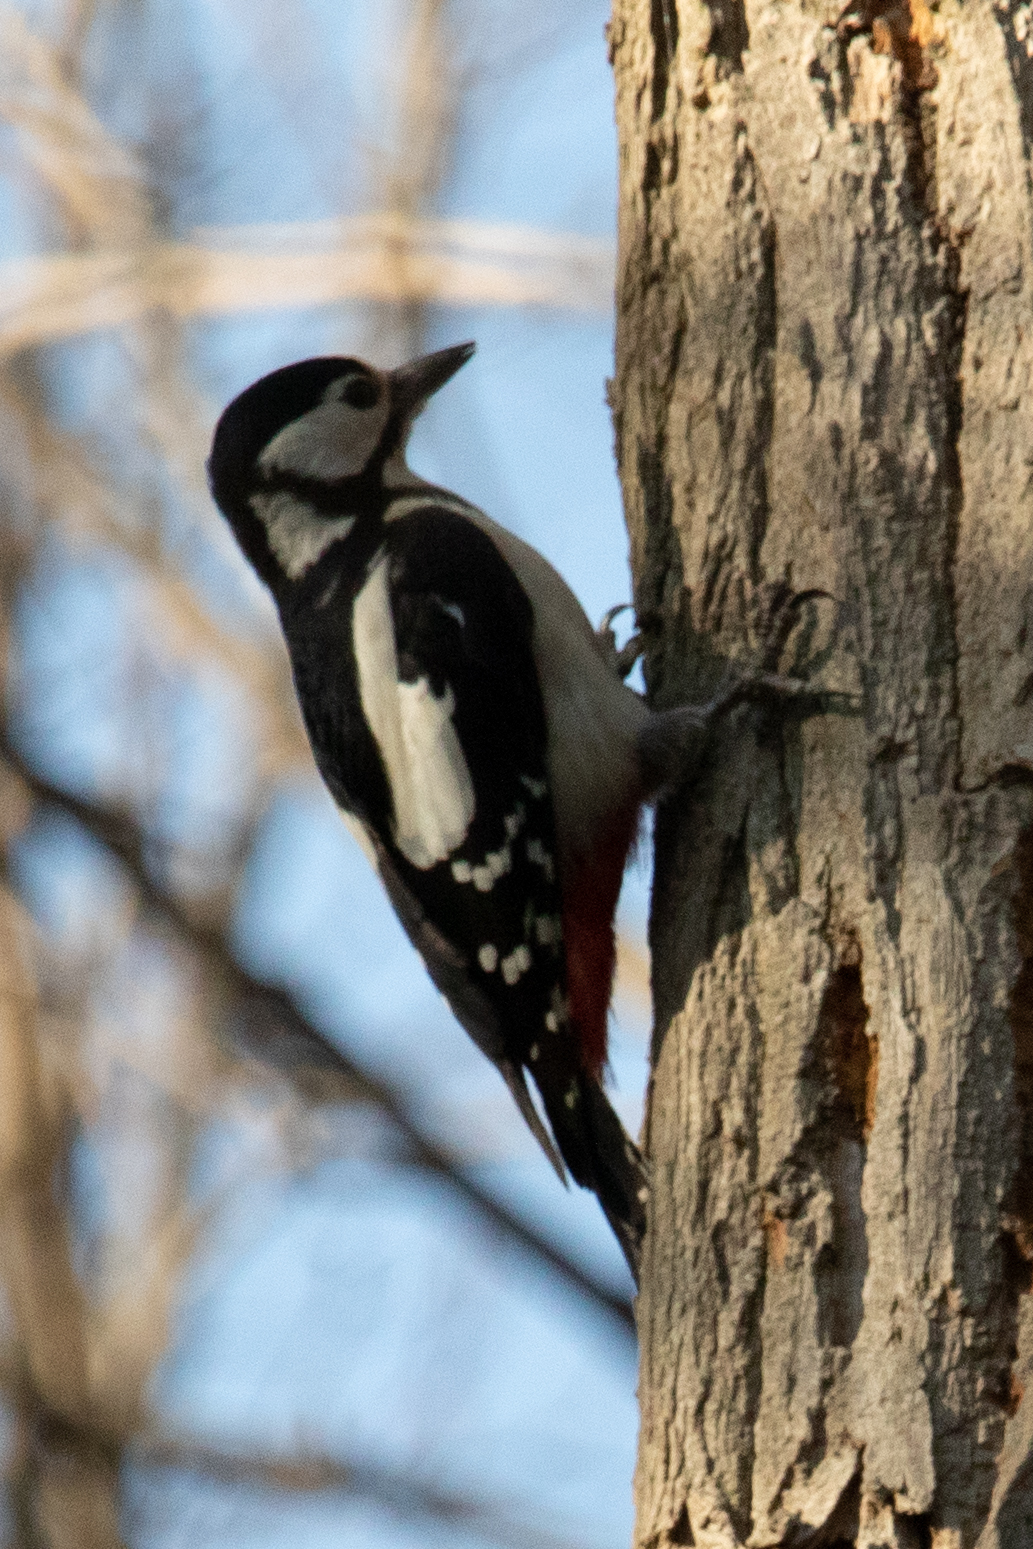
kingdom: Animalia
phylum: Chordata
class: Aves
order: Piciformes
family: Picidae
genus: Dendrocopos
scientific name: Dendrocopos major
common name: Great spotted woodpecker
